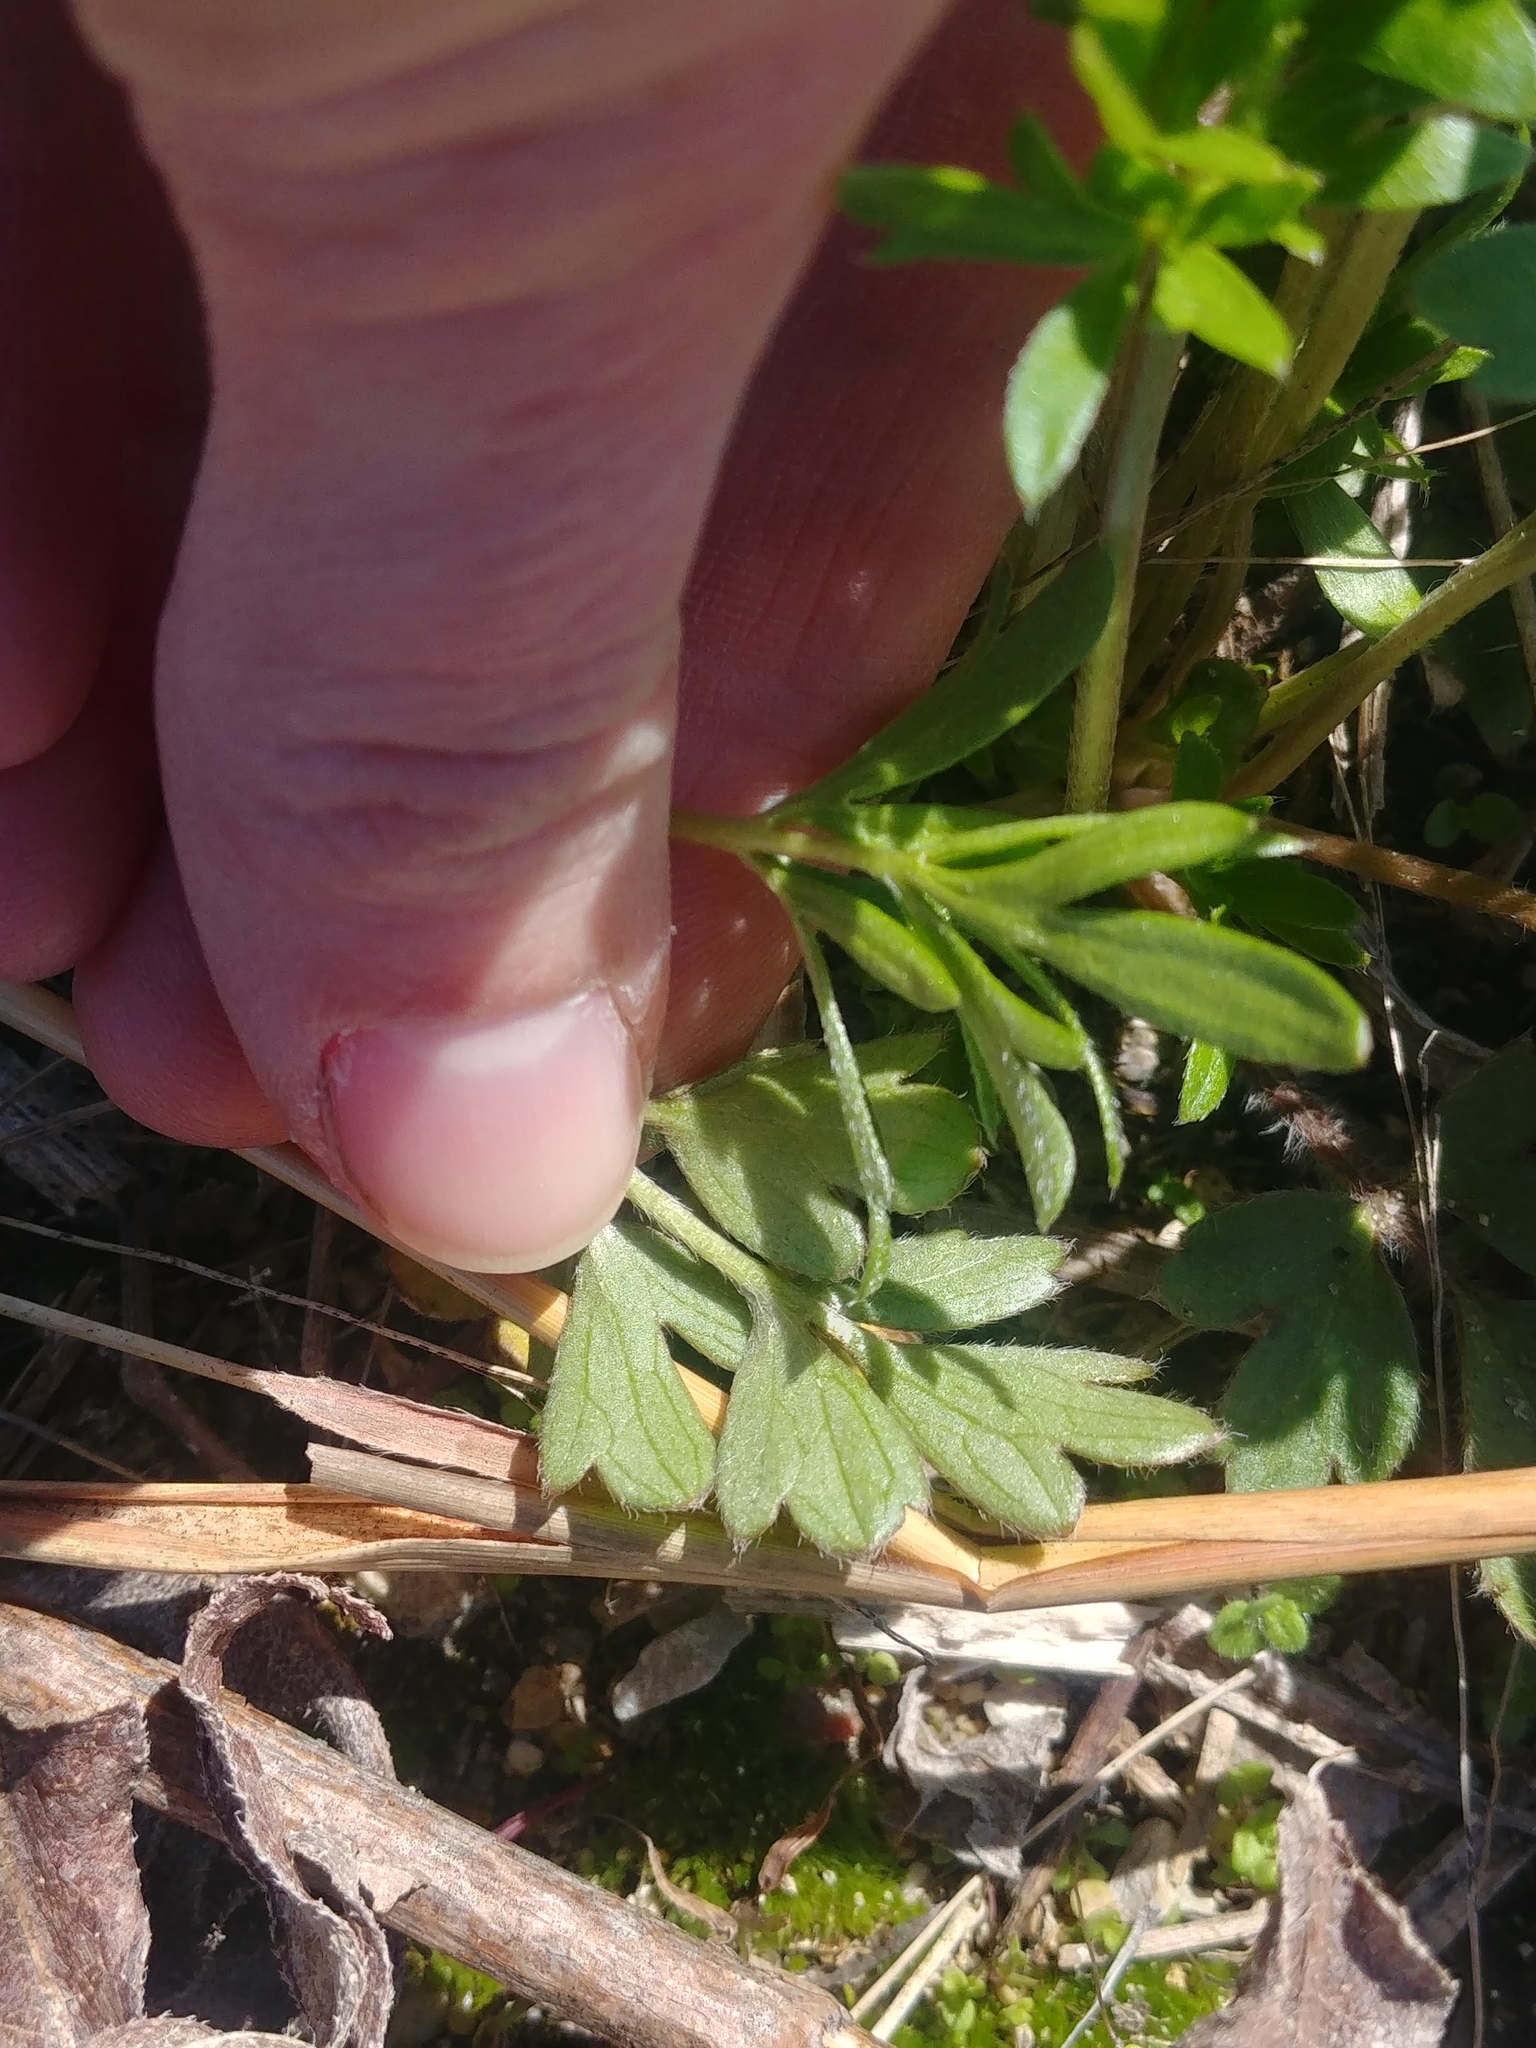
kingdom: Plantae
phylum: Tracheophyta
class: Magnoliopsida
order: Ranunculales
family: Ranunculaceae
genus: Ranunculus
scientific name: Ranunculus fascicularis
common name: Early buttercup
